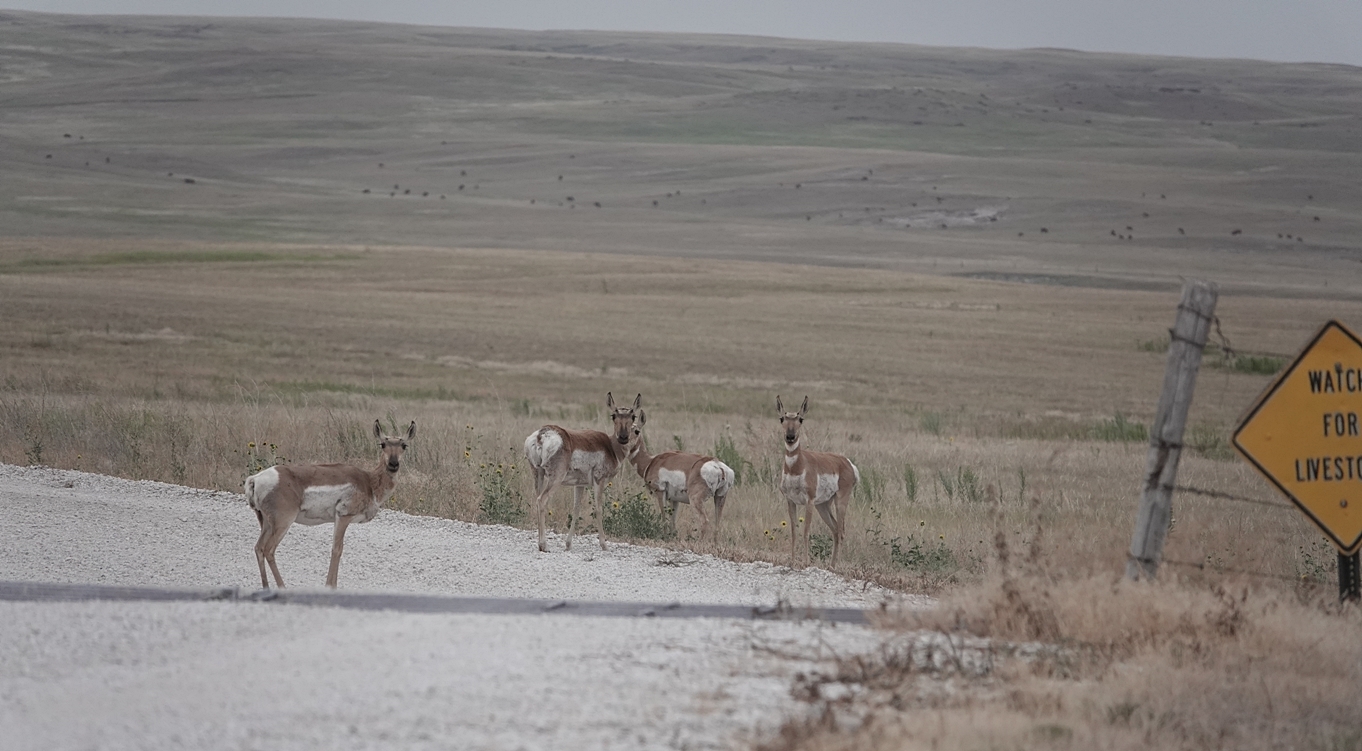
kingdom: Animalia
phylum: Chordata
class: Mammalia
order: Artiodactyla
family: Antilocapridae
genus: Antilocapra
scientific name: Antilocapra americana
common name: Pronghorn
